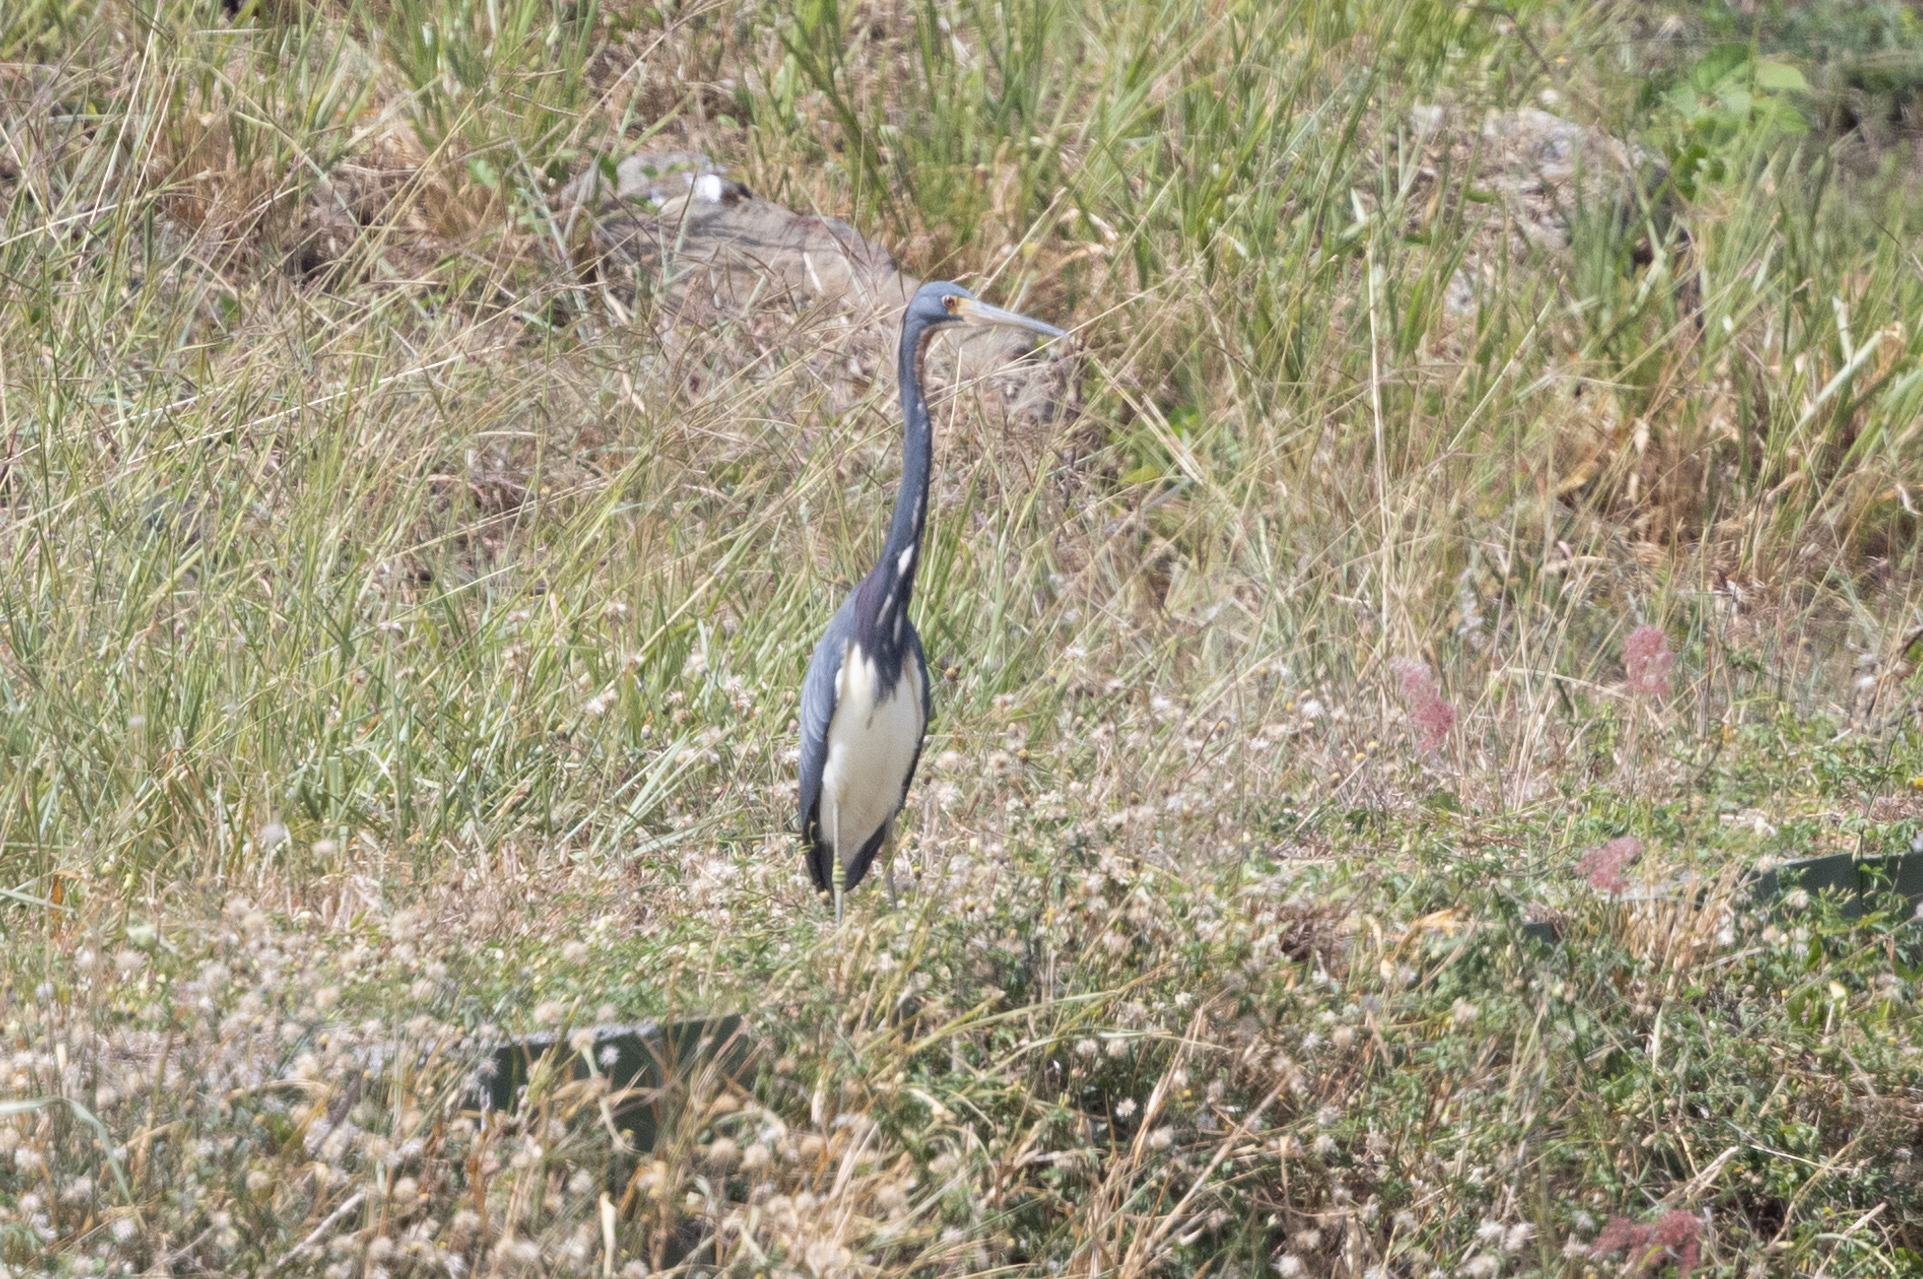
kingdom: Animalia
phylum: Chordata
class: Aves
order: Pelecaniformes
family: Ardeidae
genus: Egretta
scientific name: Egretta tricolor
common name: Tricolored heron
